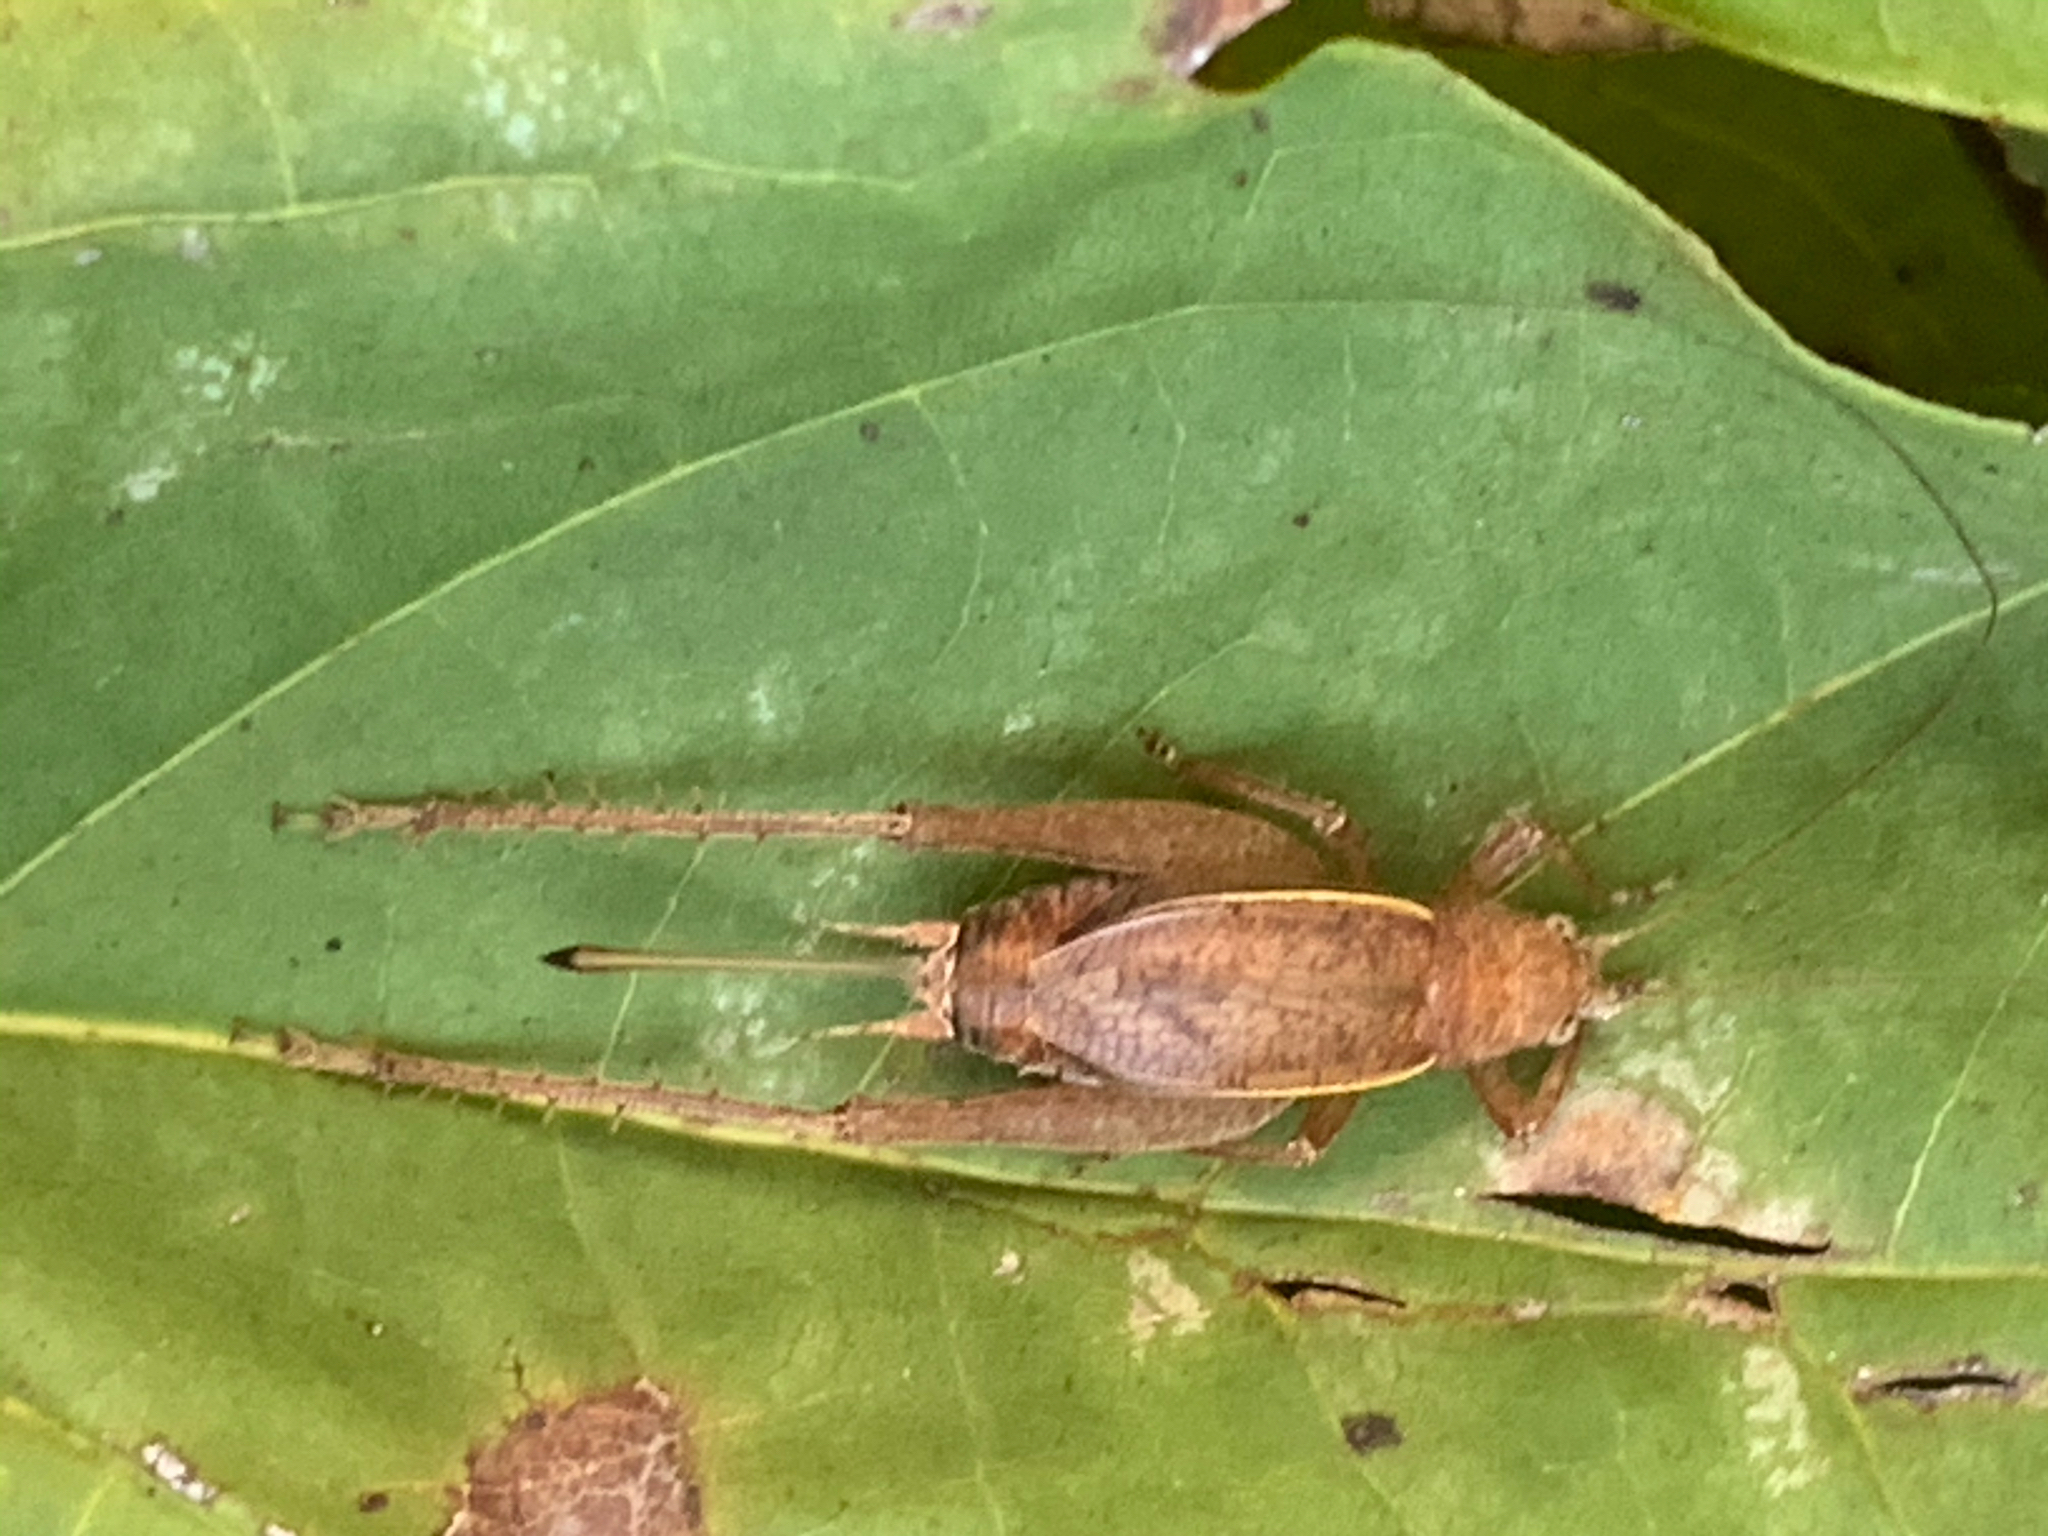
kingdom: Animalia
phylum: Arthropoda
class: Insecta
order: Orthoptera
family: Gryllidae
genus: Hapithus
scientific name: Hapithus agitator
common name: Restless bush cricket
